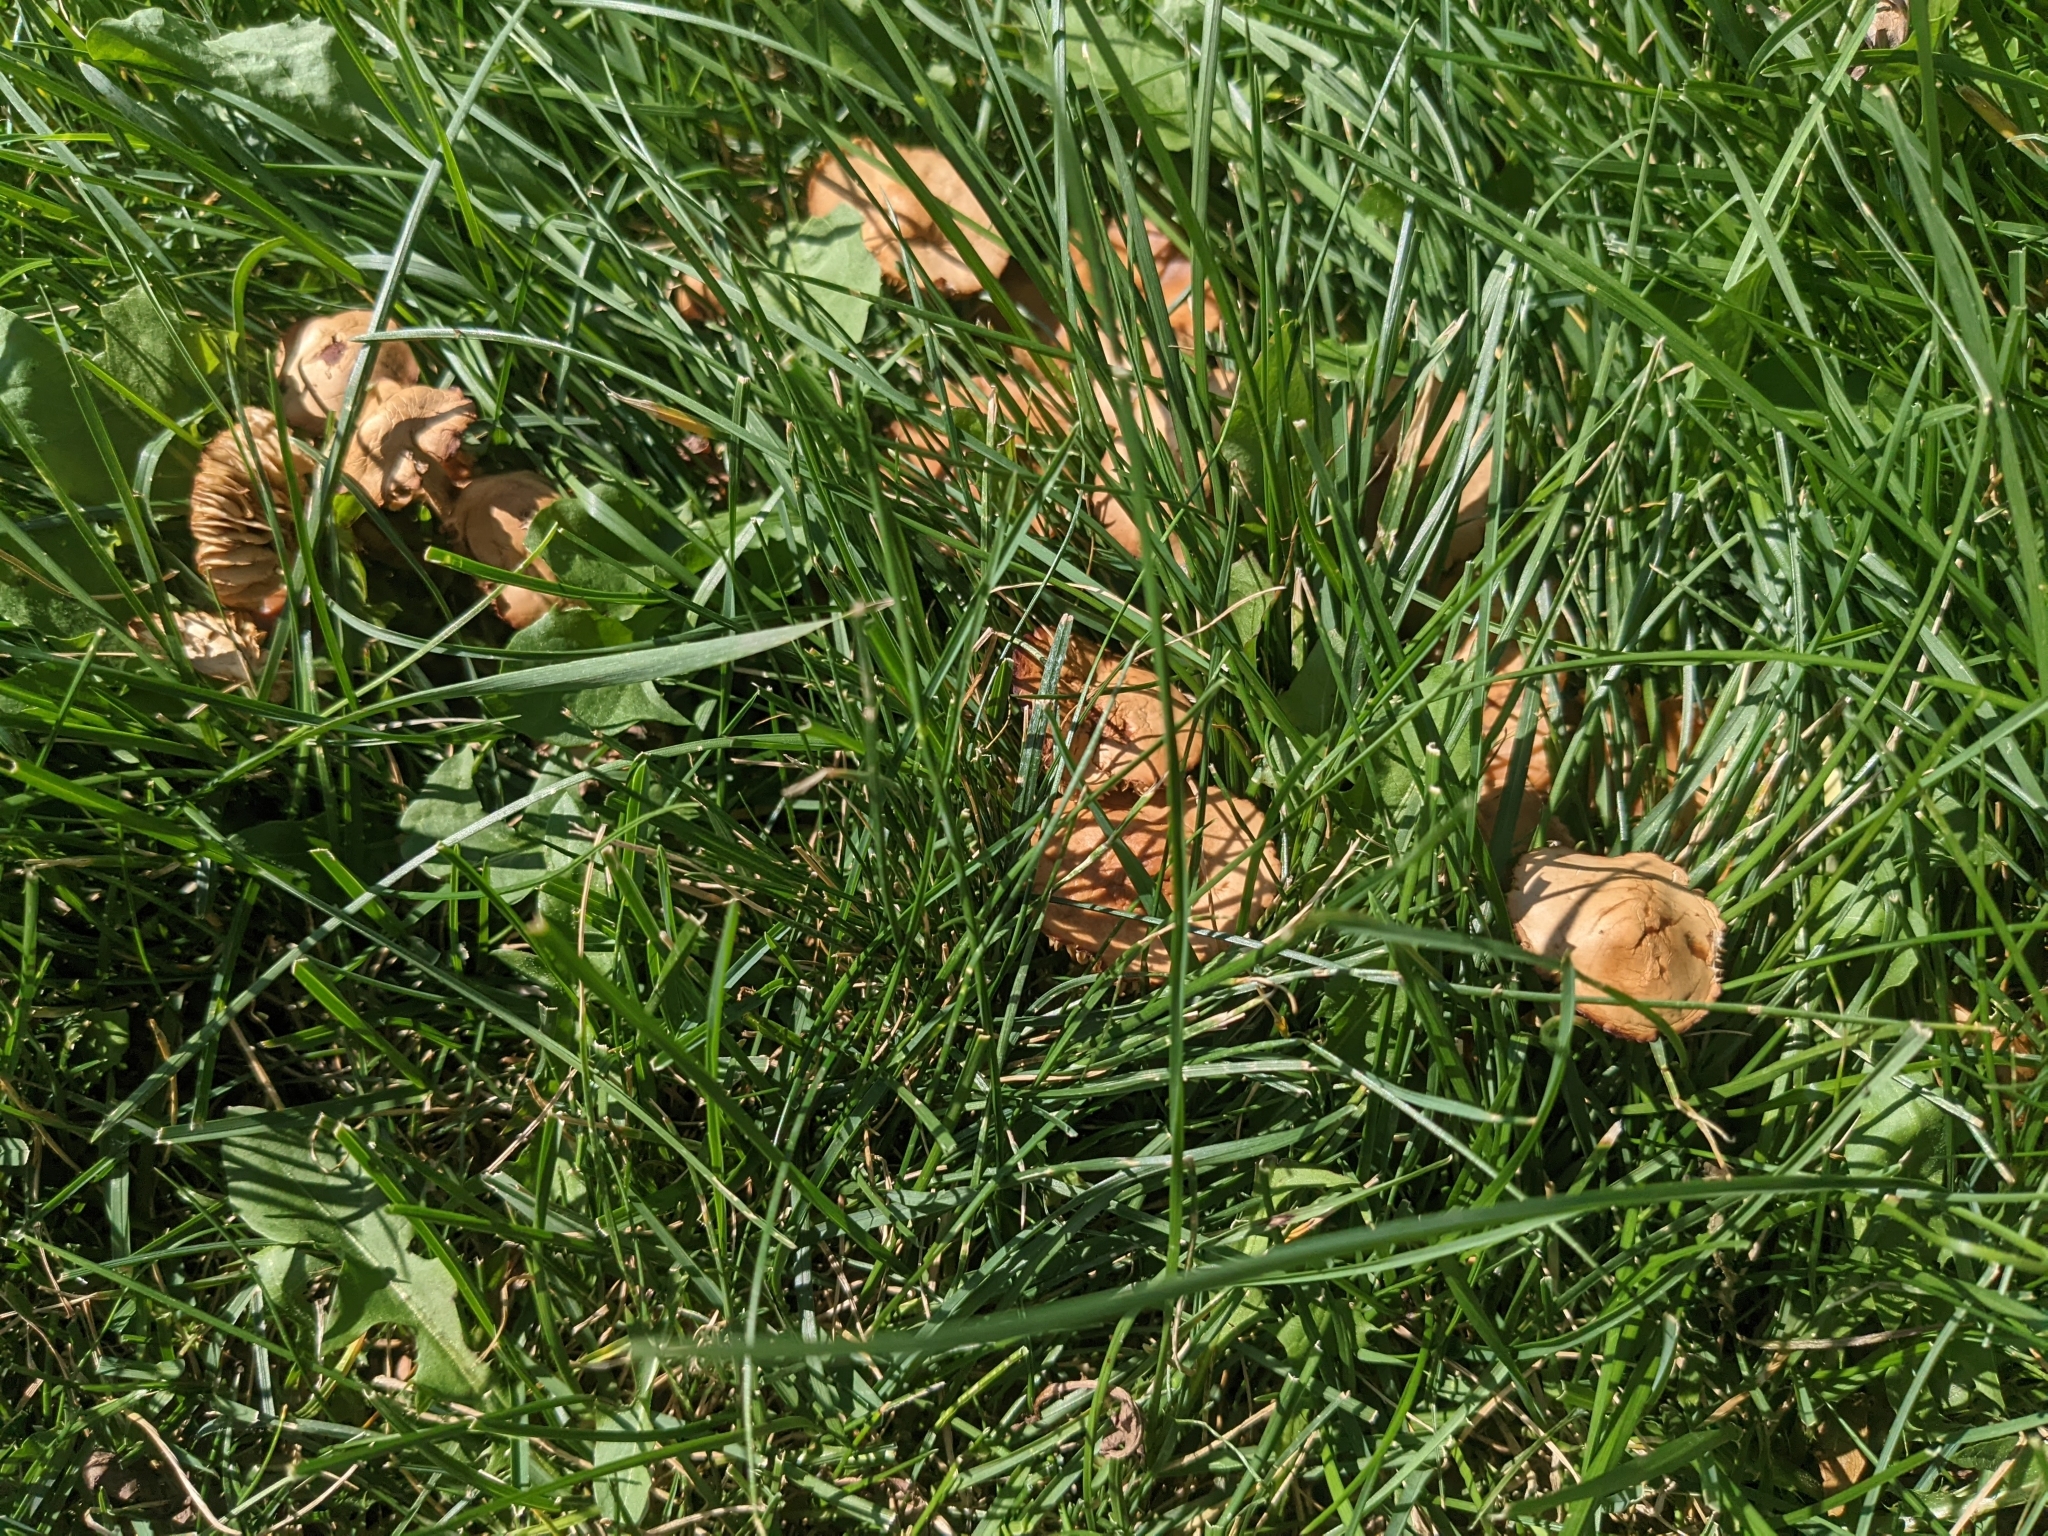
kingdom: Fungi
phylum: Basidiomycota
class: Agaricomycetes
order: Agaricales
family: Marasmiaceae
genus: Marasmius
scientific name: Marasmius oreades
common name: Fairy ring champignon
